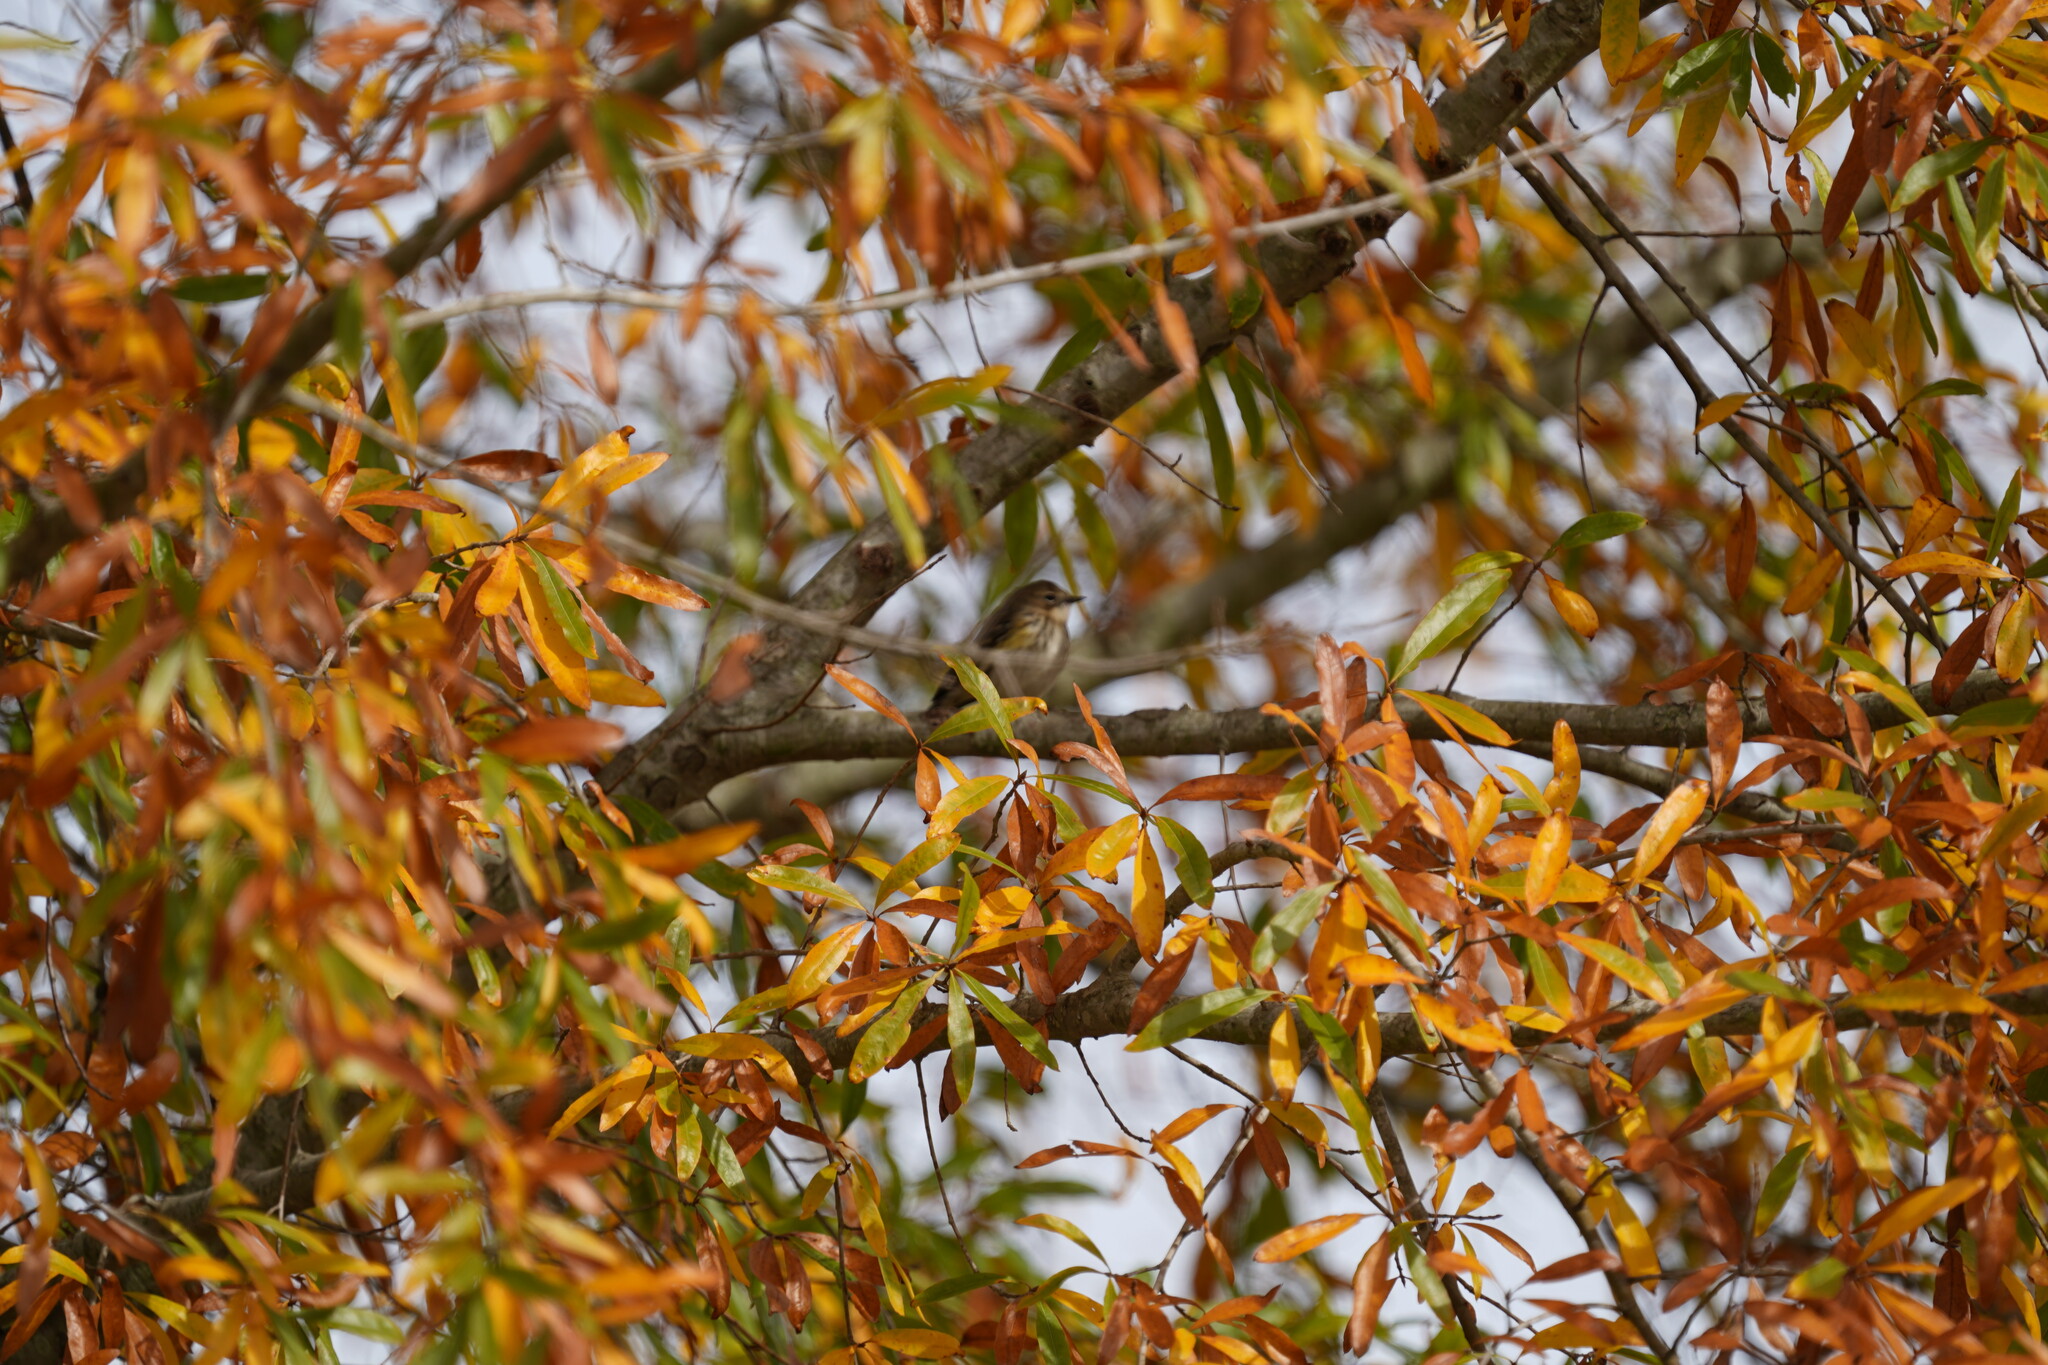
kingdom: Animalia
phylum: Chordata
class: Aves
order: Passeriformes
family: Parulidae
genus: Setophaga
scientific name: Setophaga coronata
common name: Myrtle warbler
